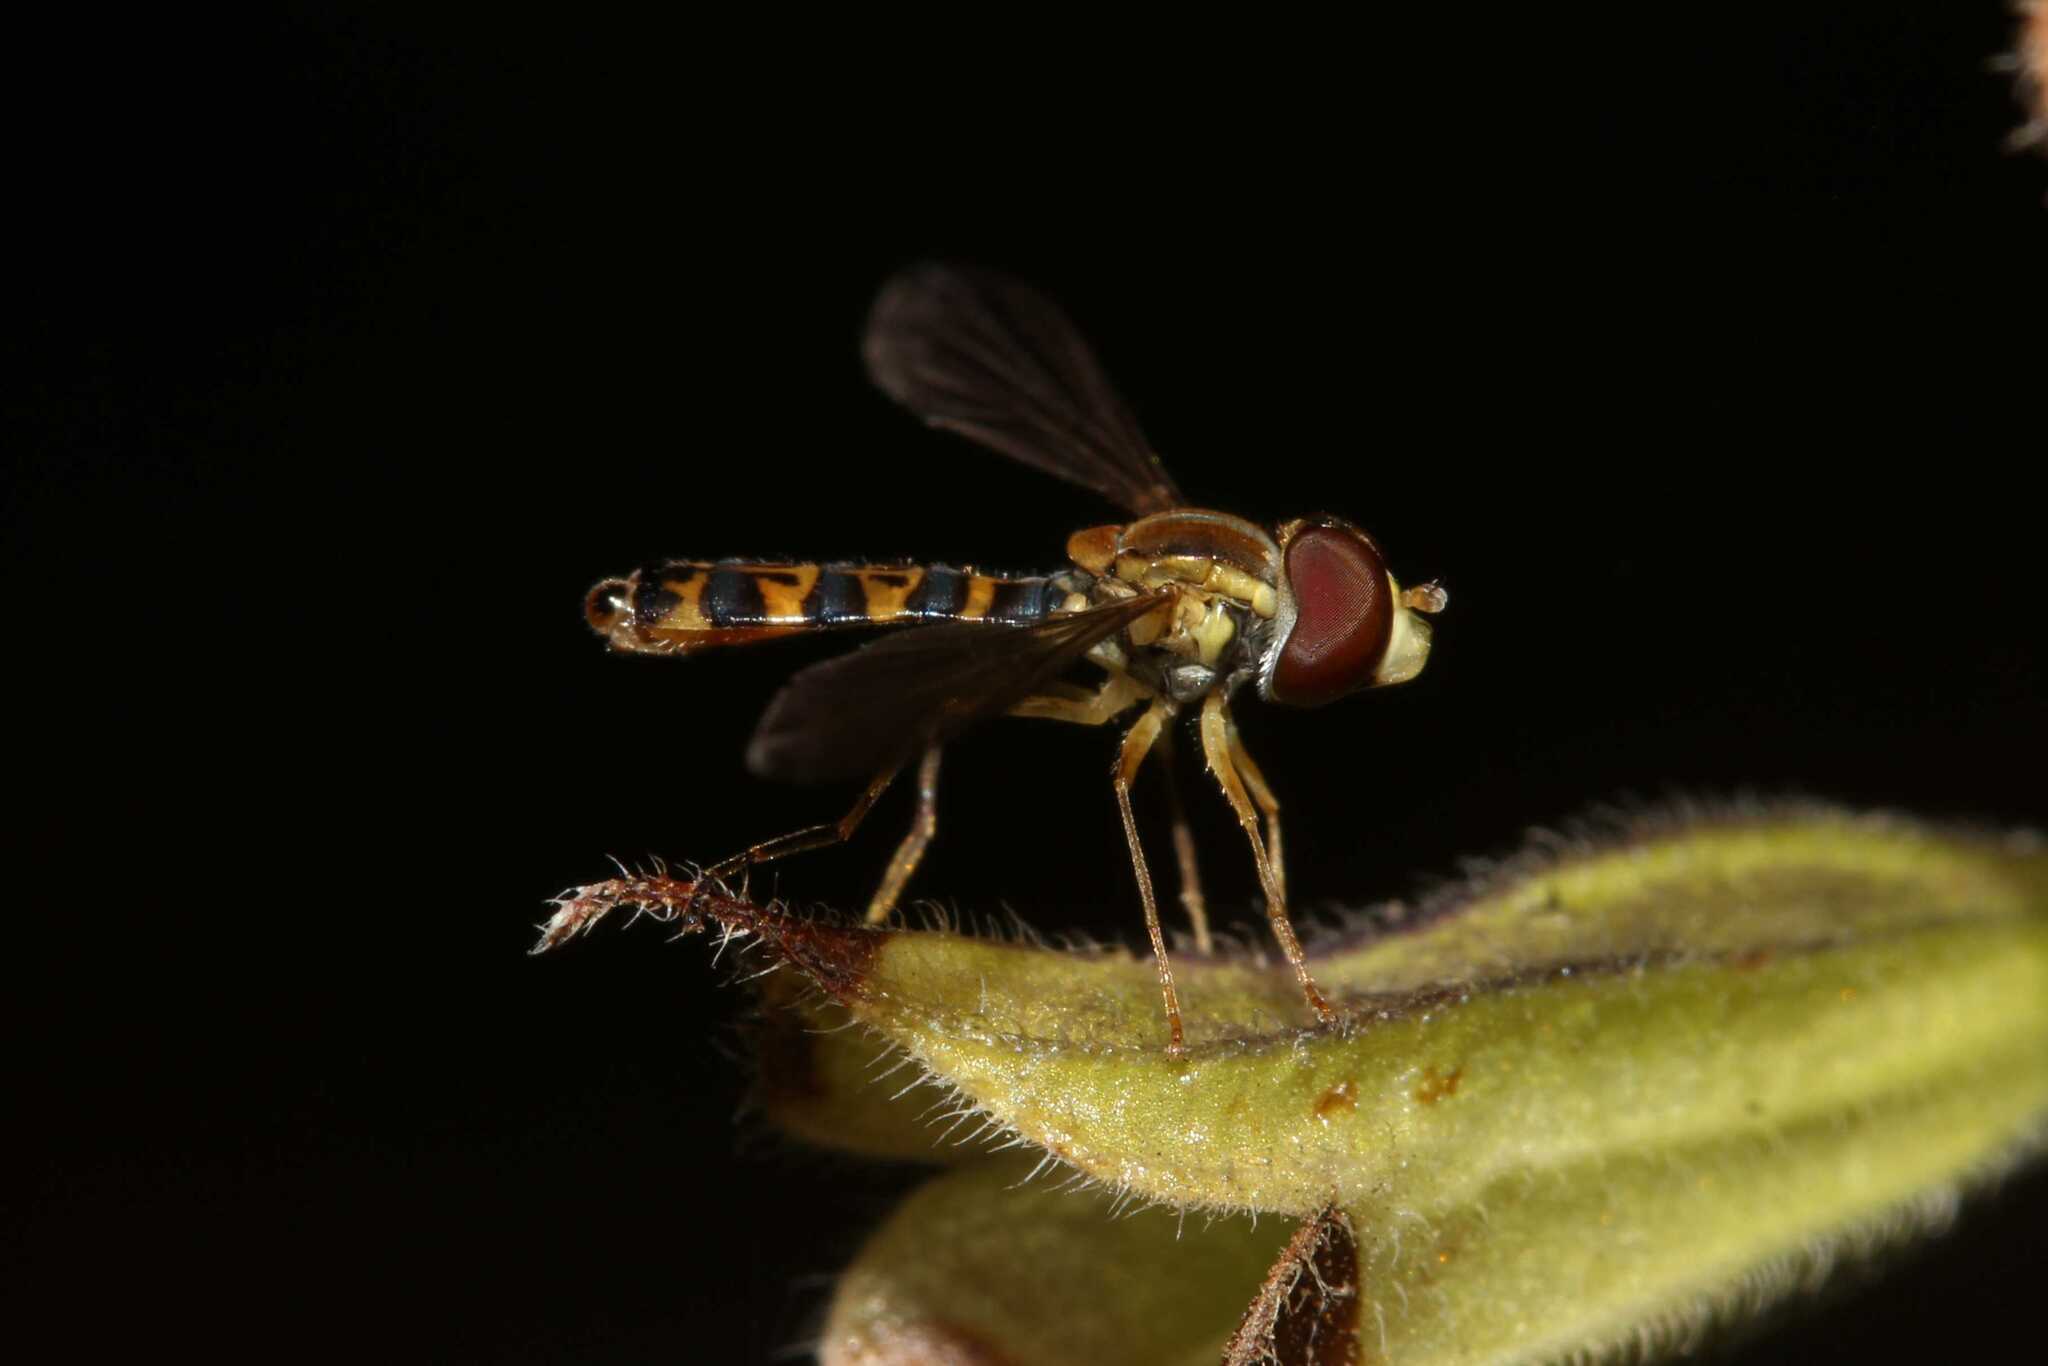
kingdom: Animalia
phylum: Arthropoda
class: Insecta
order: Diptera
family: Syrphidae
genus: Toxomerus
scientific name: Toxomerus
